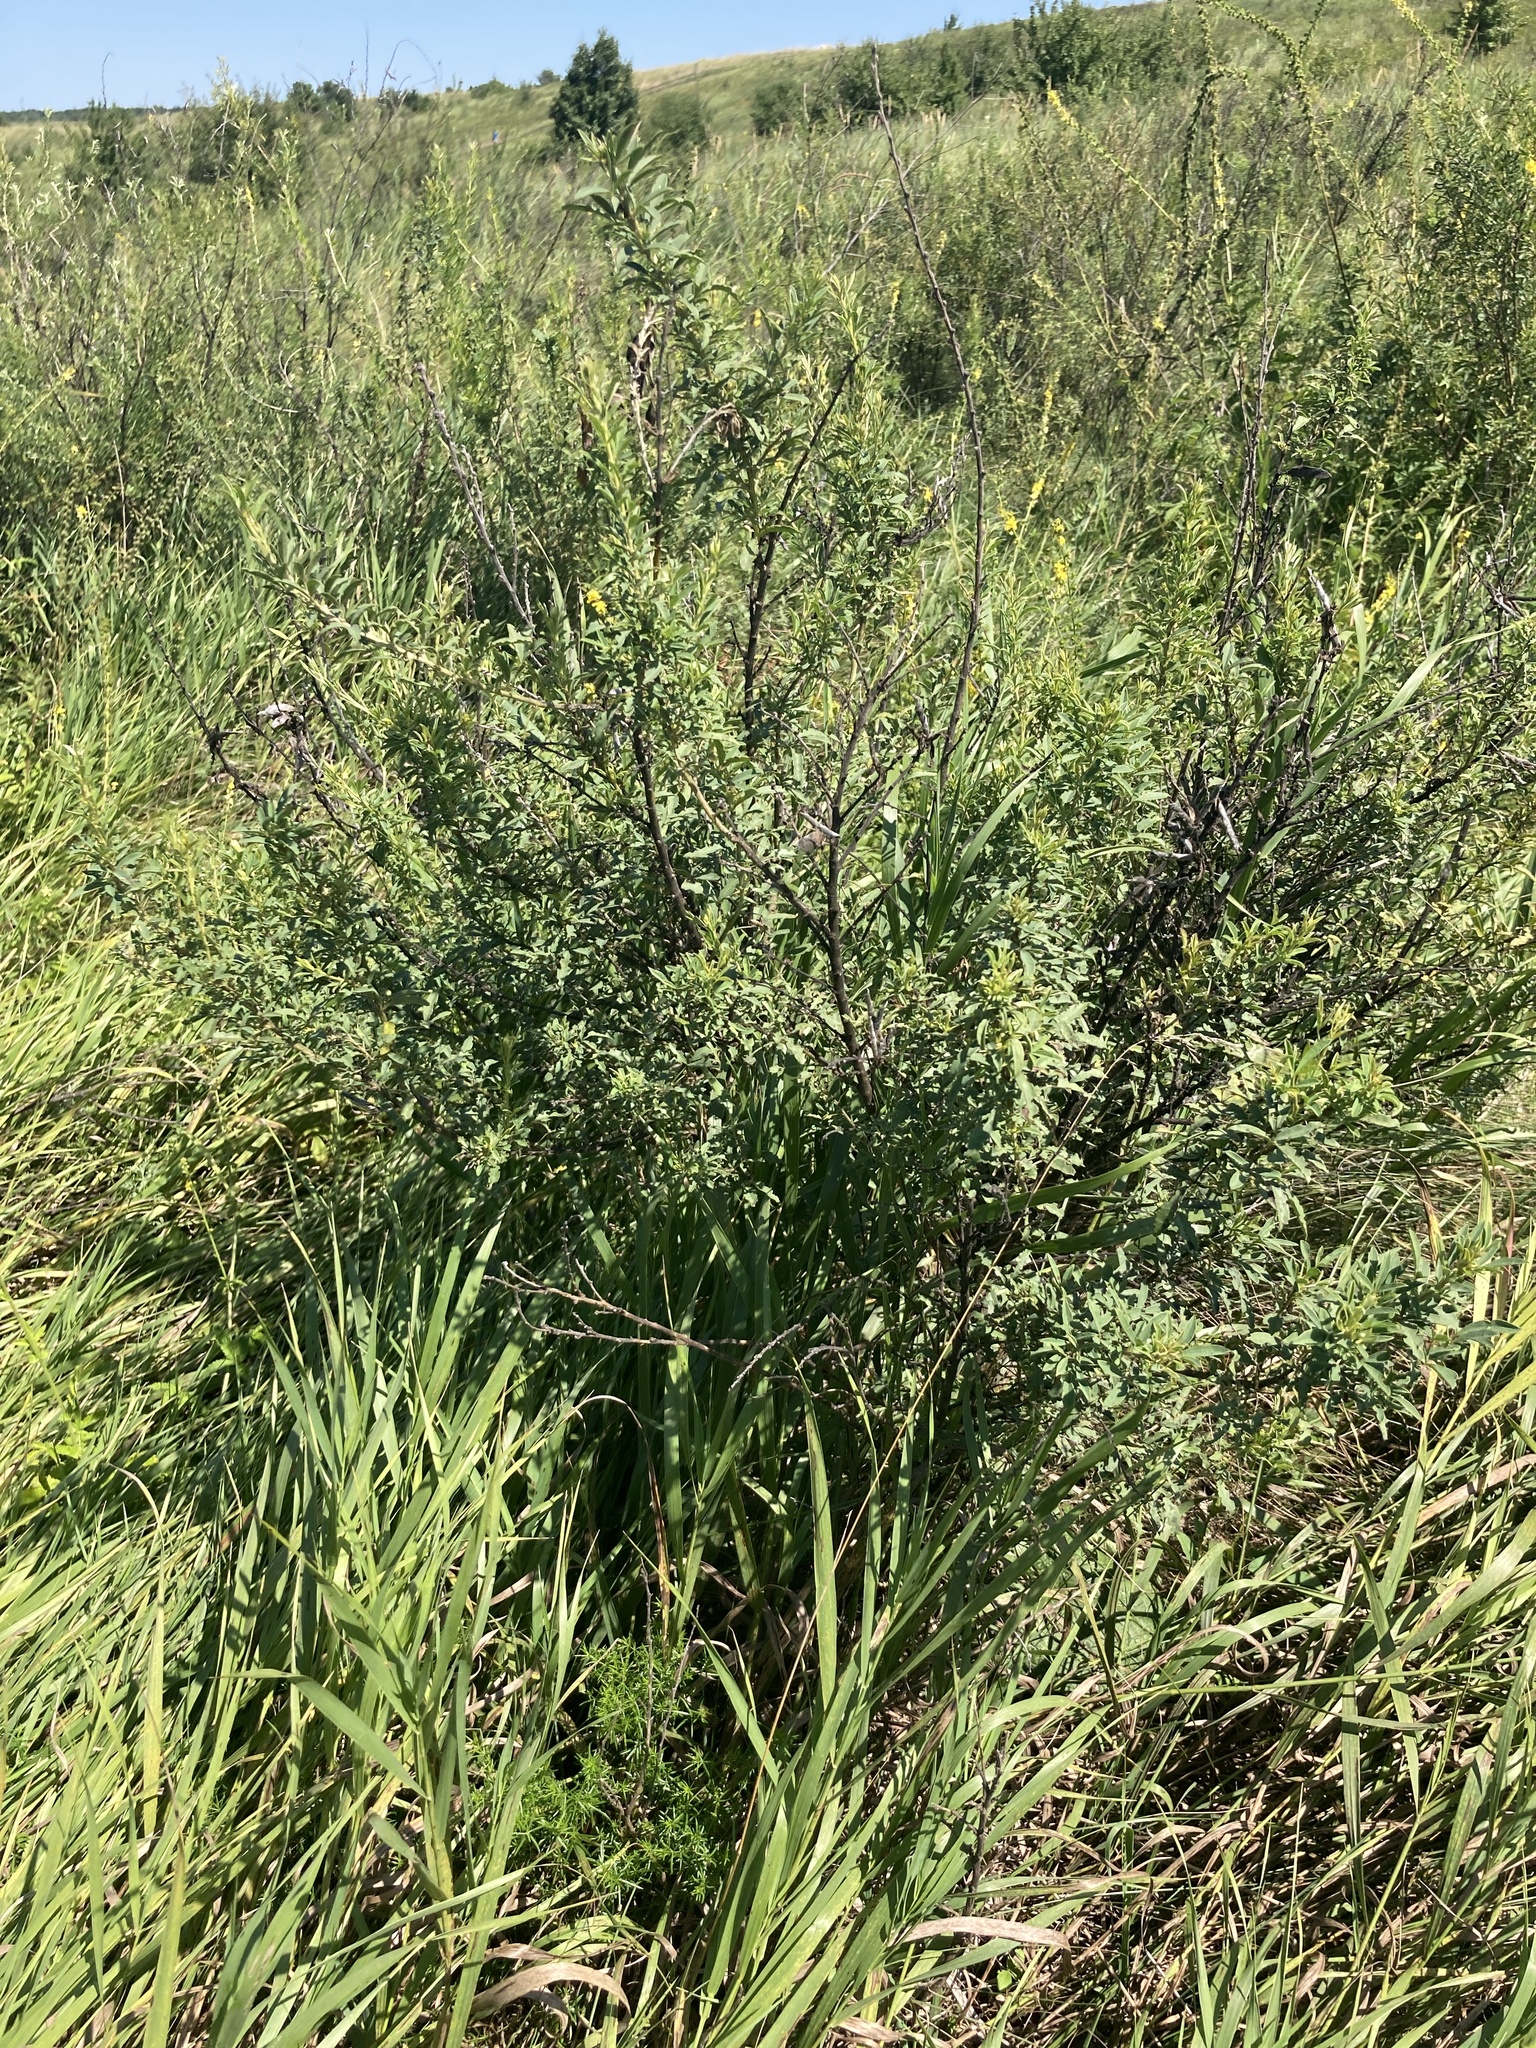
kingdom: Plantae
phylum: Tracheophyta
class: Magnoliopsida
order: Fabales
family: Fabaceae
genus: Chamaecytisus
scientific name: Chamaecytisus ruthenicus
